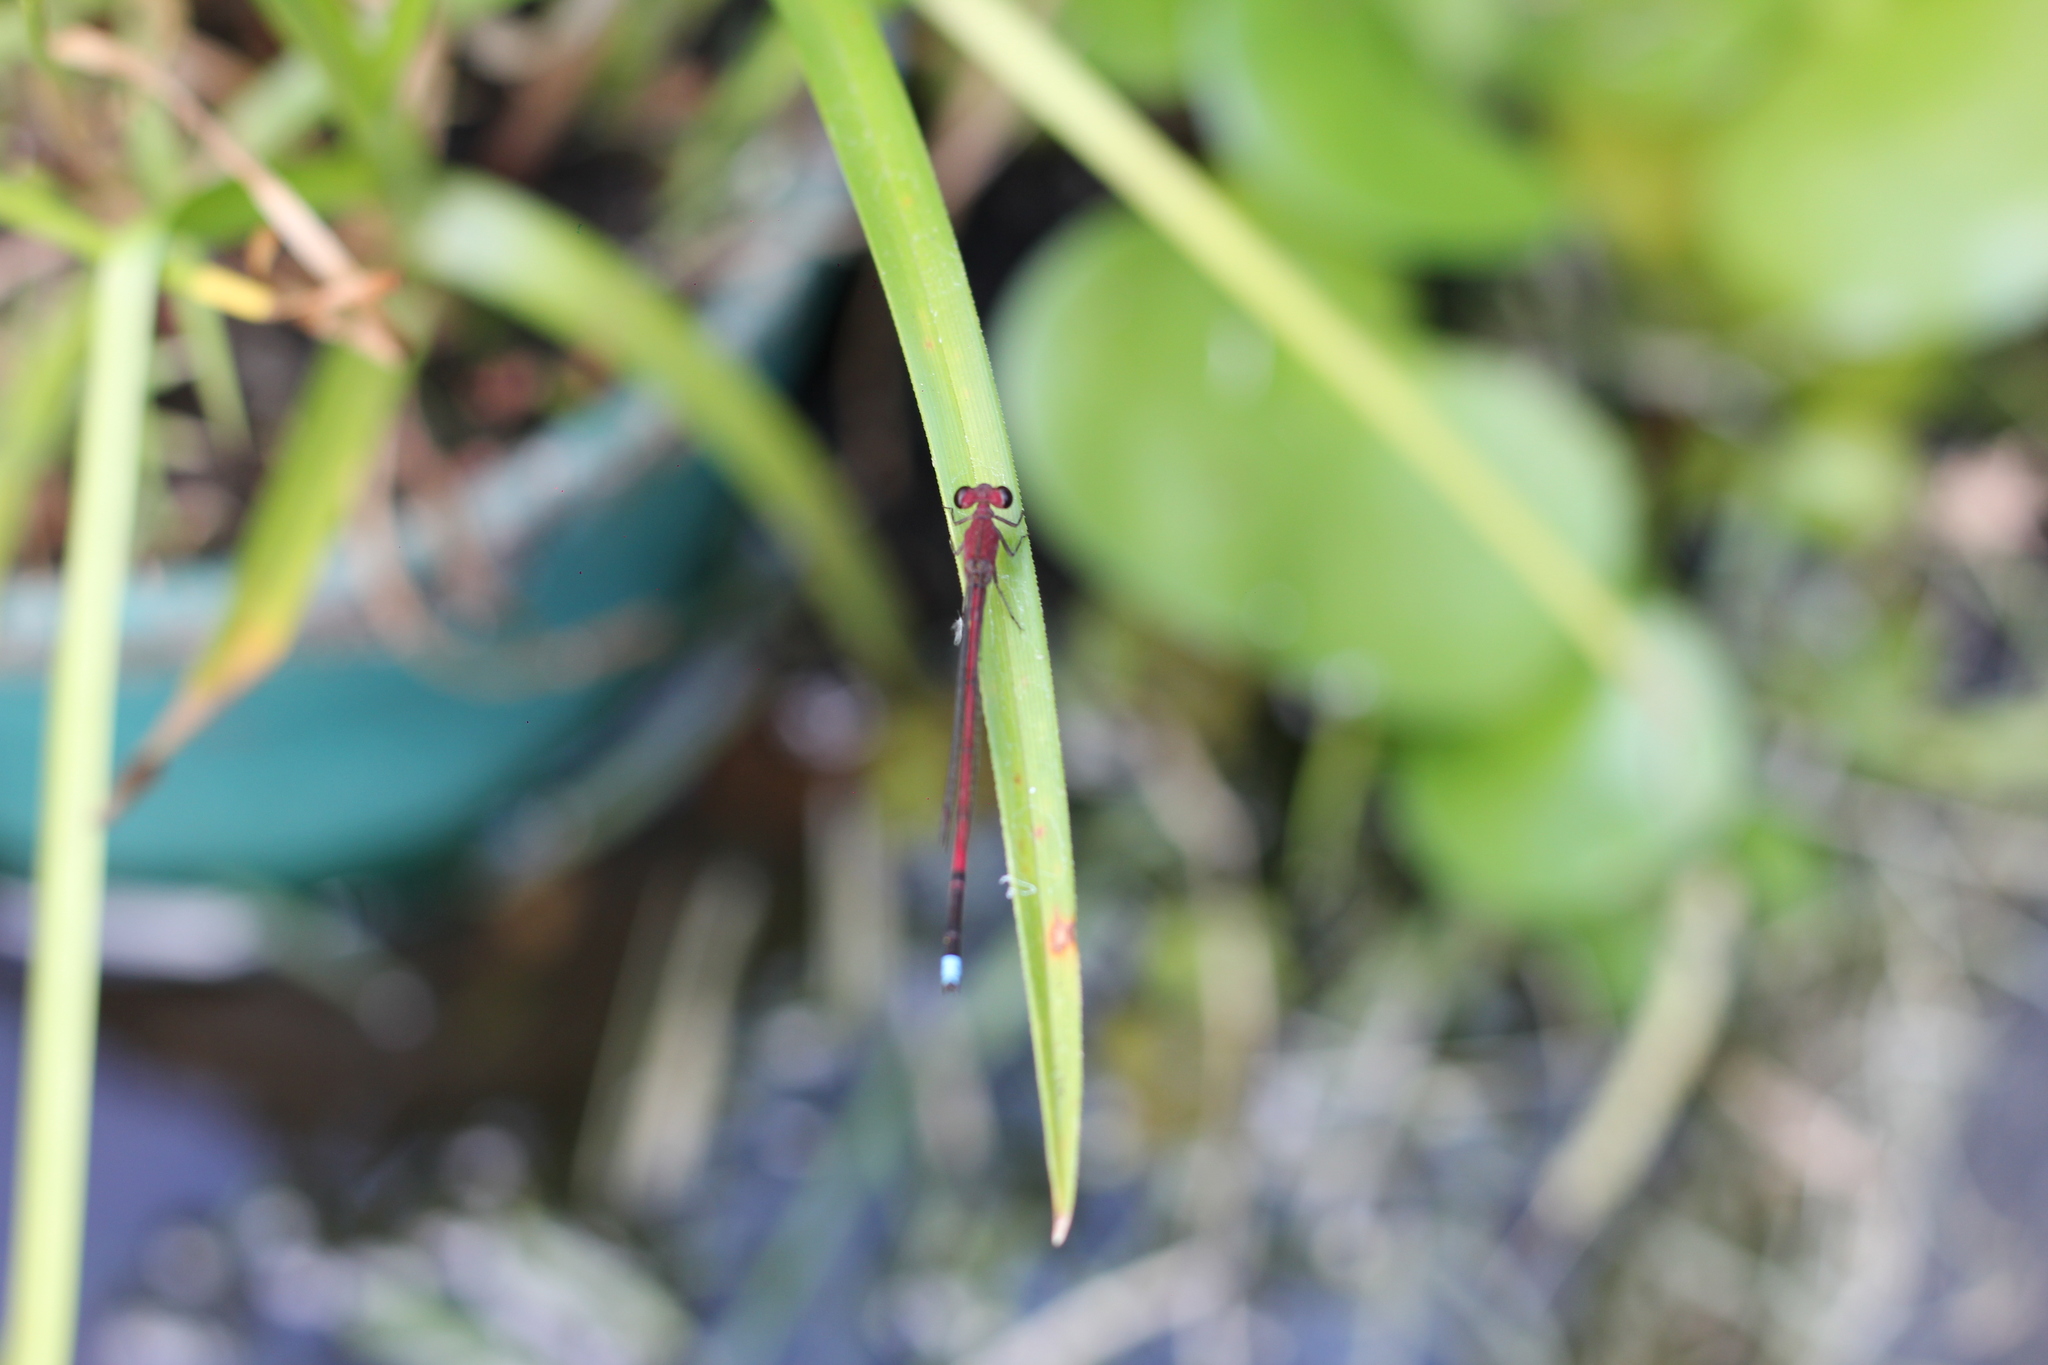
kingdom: Animalia
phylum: Arthropoda
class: Insecta
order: Odonata
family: Coenagrionidae
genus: Oxyagrion
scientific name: Oxyagrion terminale
